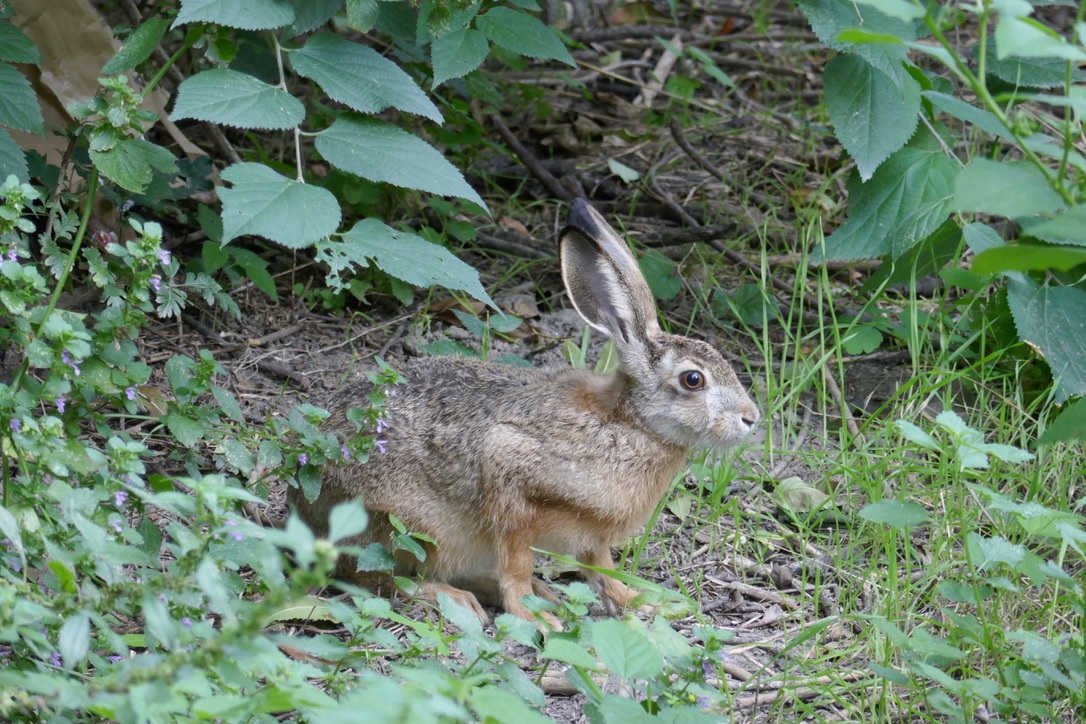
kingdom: Animalia
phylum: Chordata
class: Mammalia
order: Lagomorpha
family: Leporidae
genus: Lepus
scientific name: Lepus europaeus
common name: European hare
